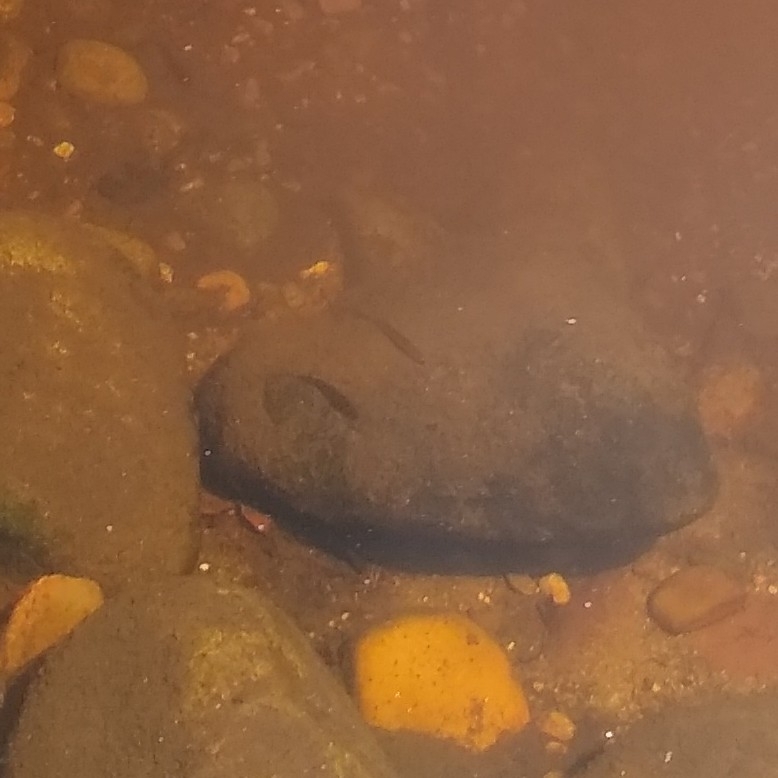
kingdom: Animalia
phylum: Chordata
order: Perciformes
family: Centrarchidae
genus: Micropterus
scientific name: Micropterus
